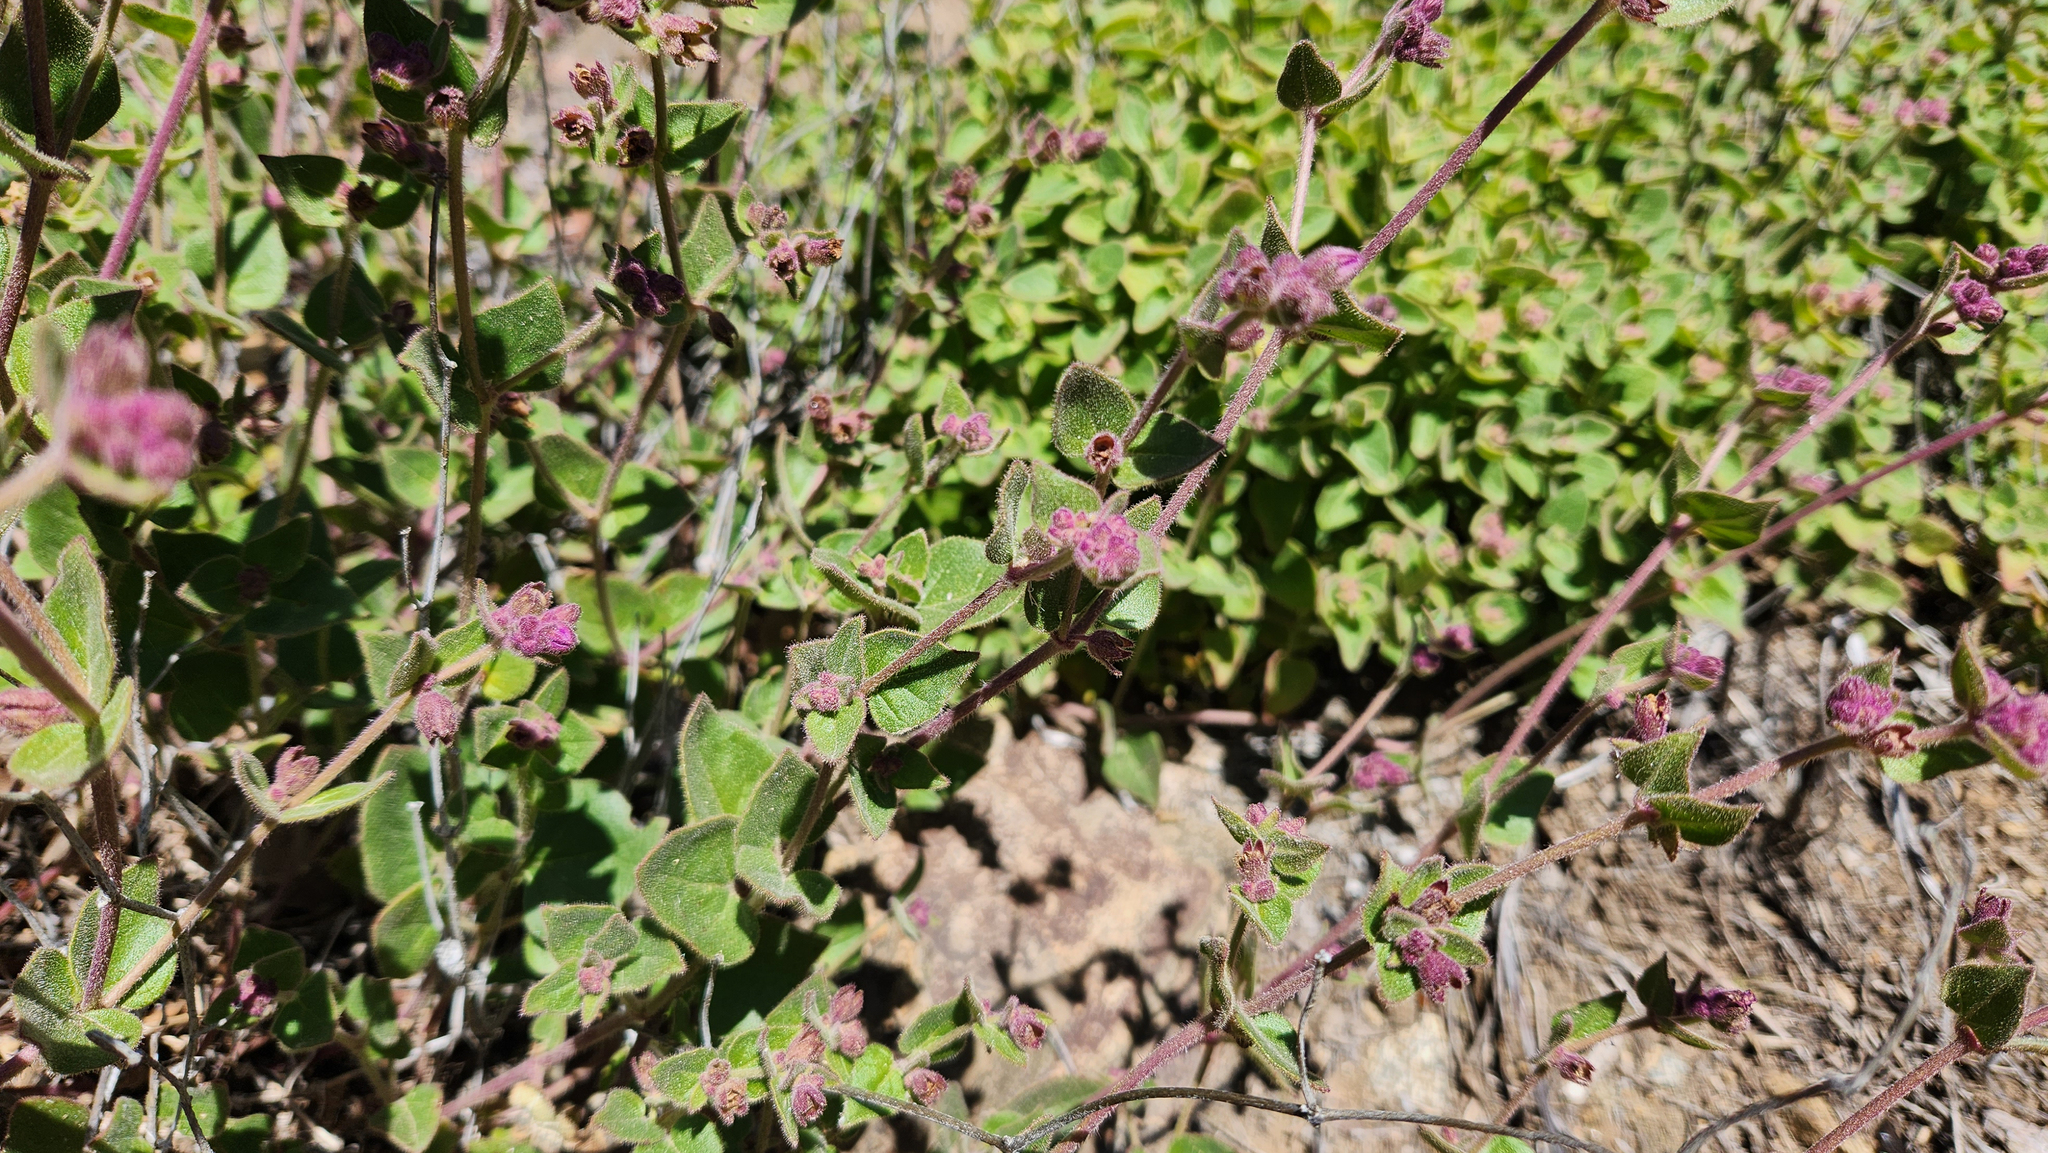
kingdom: Plantae
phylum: Tracheophyta
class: Magnoliopsida
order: Caryophyllales
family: Nyctaginaceae
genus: Mirabilis
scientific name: Mirabilis laevis
